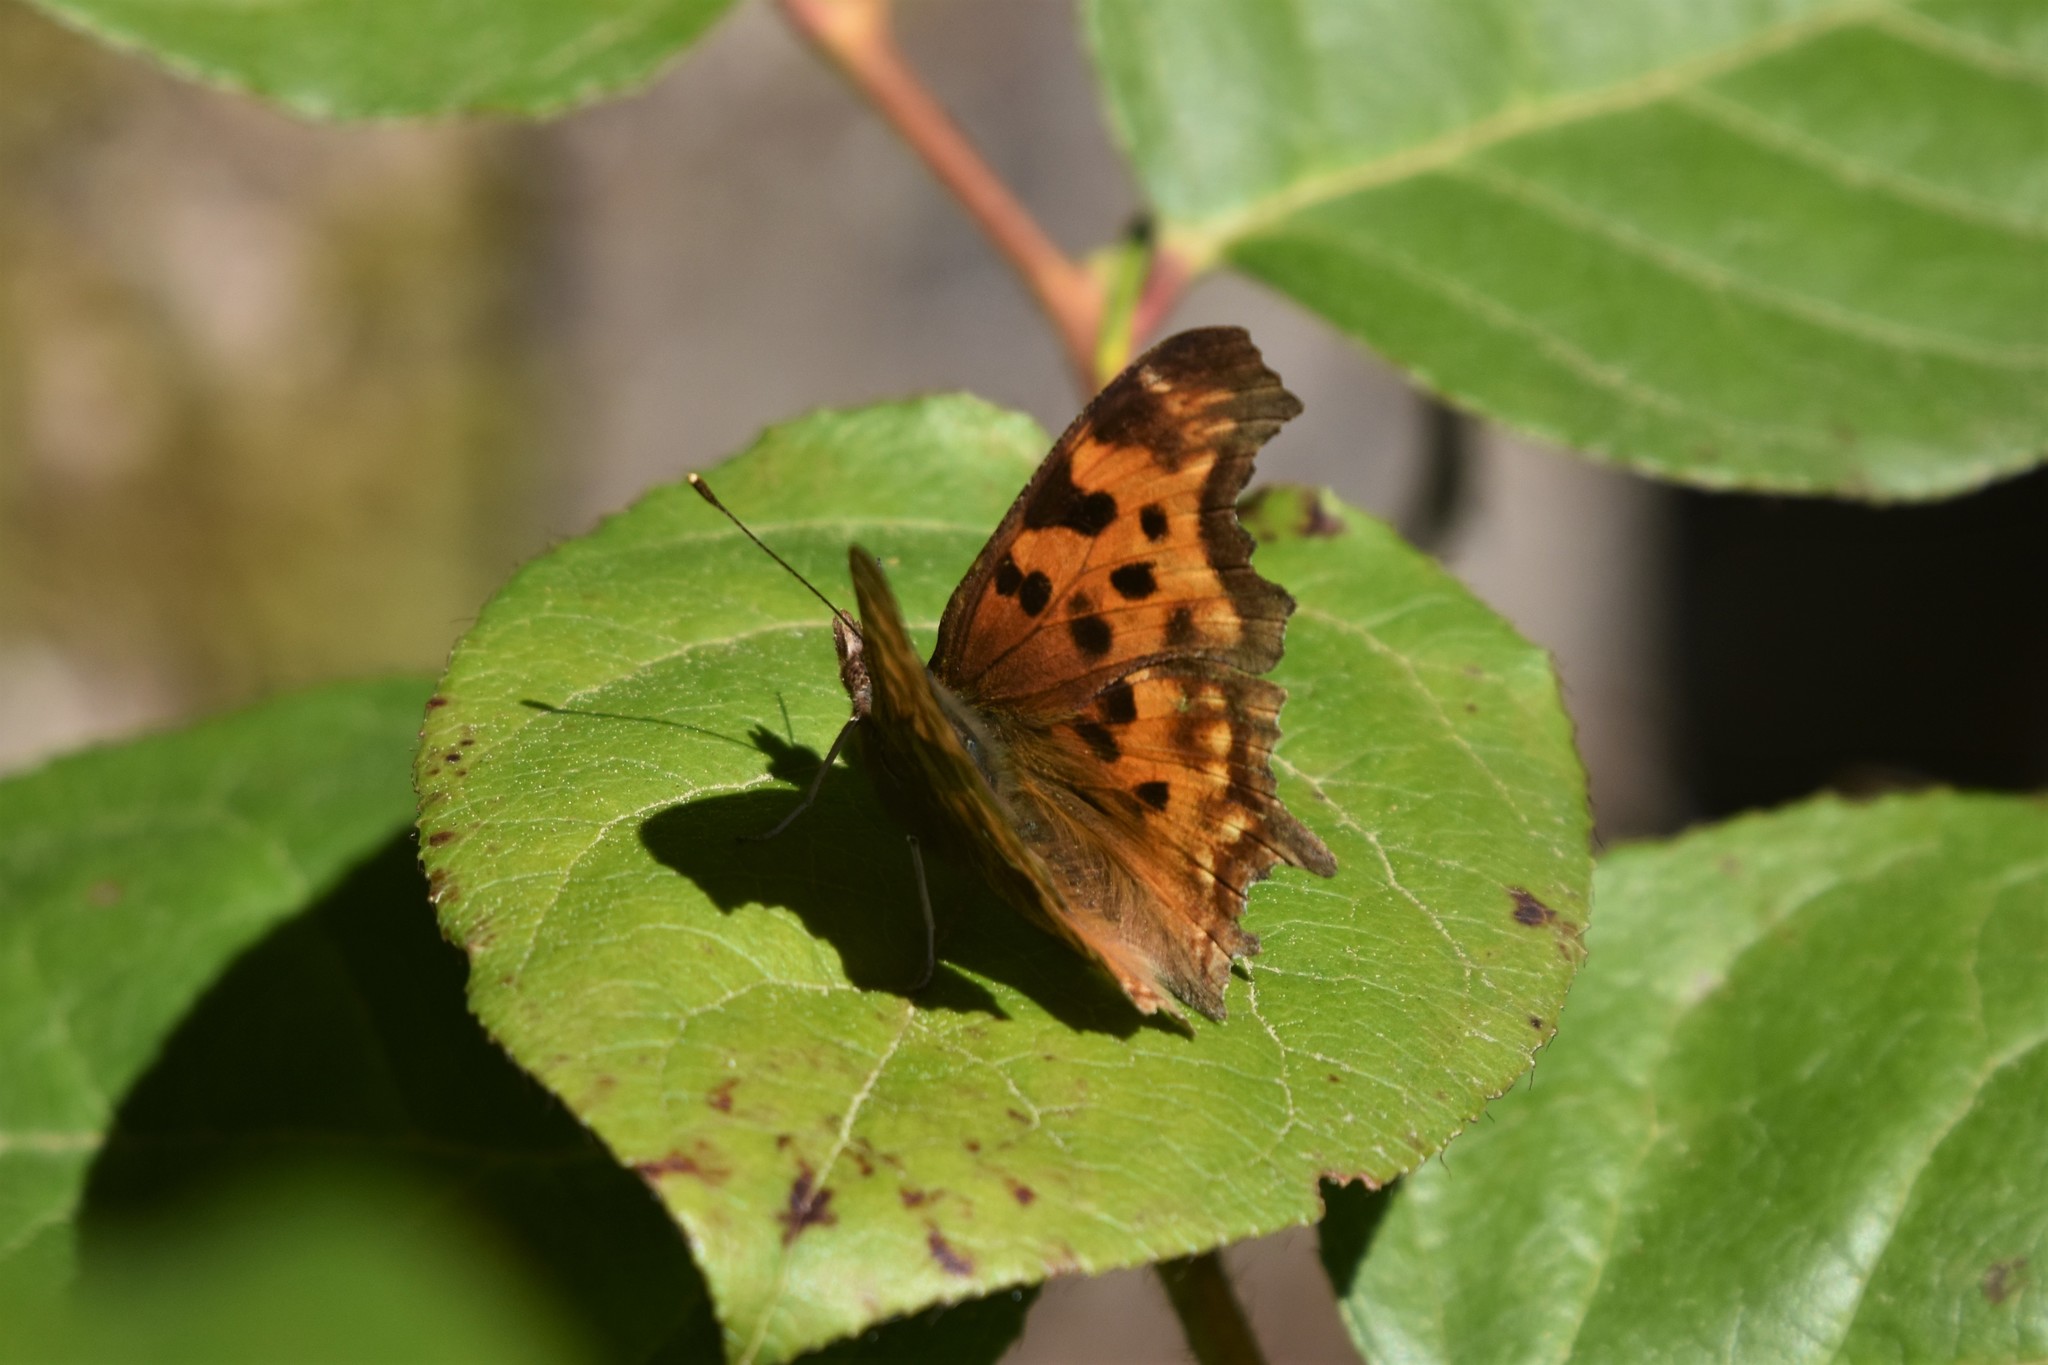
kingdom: Animalia
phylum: Arthropoda
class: Insecta
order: Lepidoptera
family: Nymphalidae
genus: Polygonia
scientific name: Polygonia satyrus
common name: Satyr angle wing
